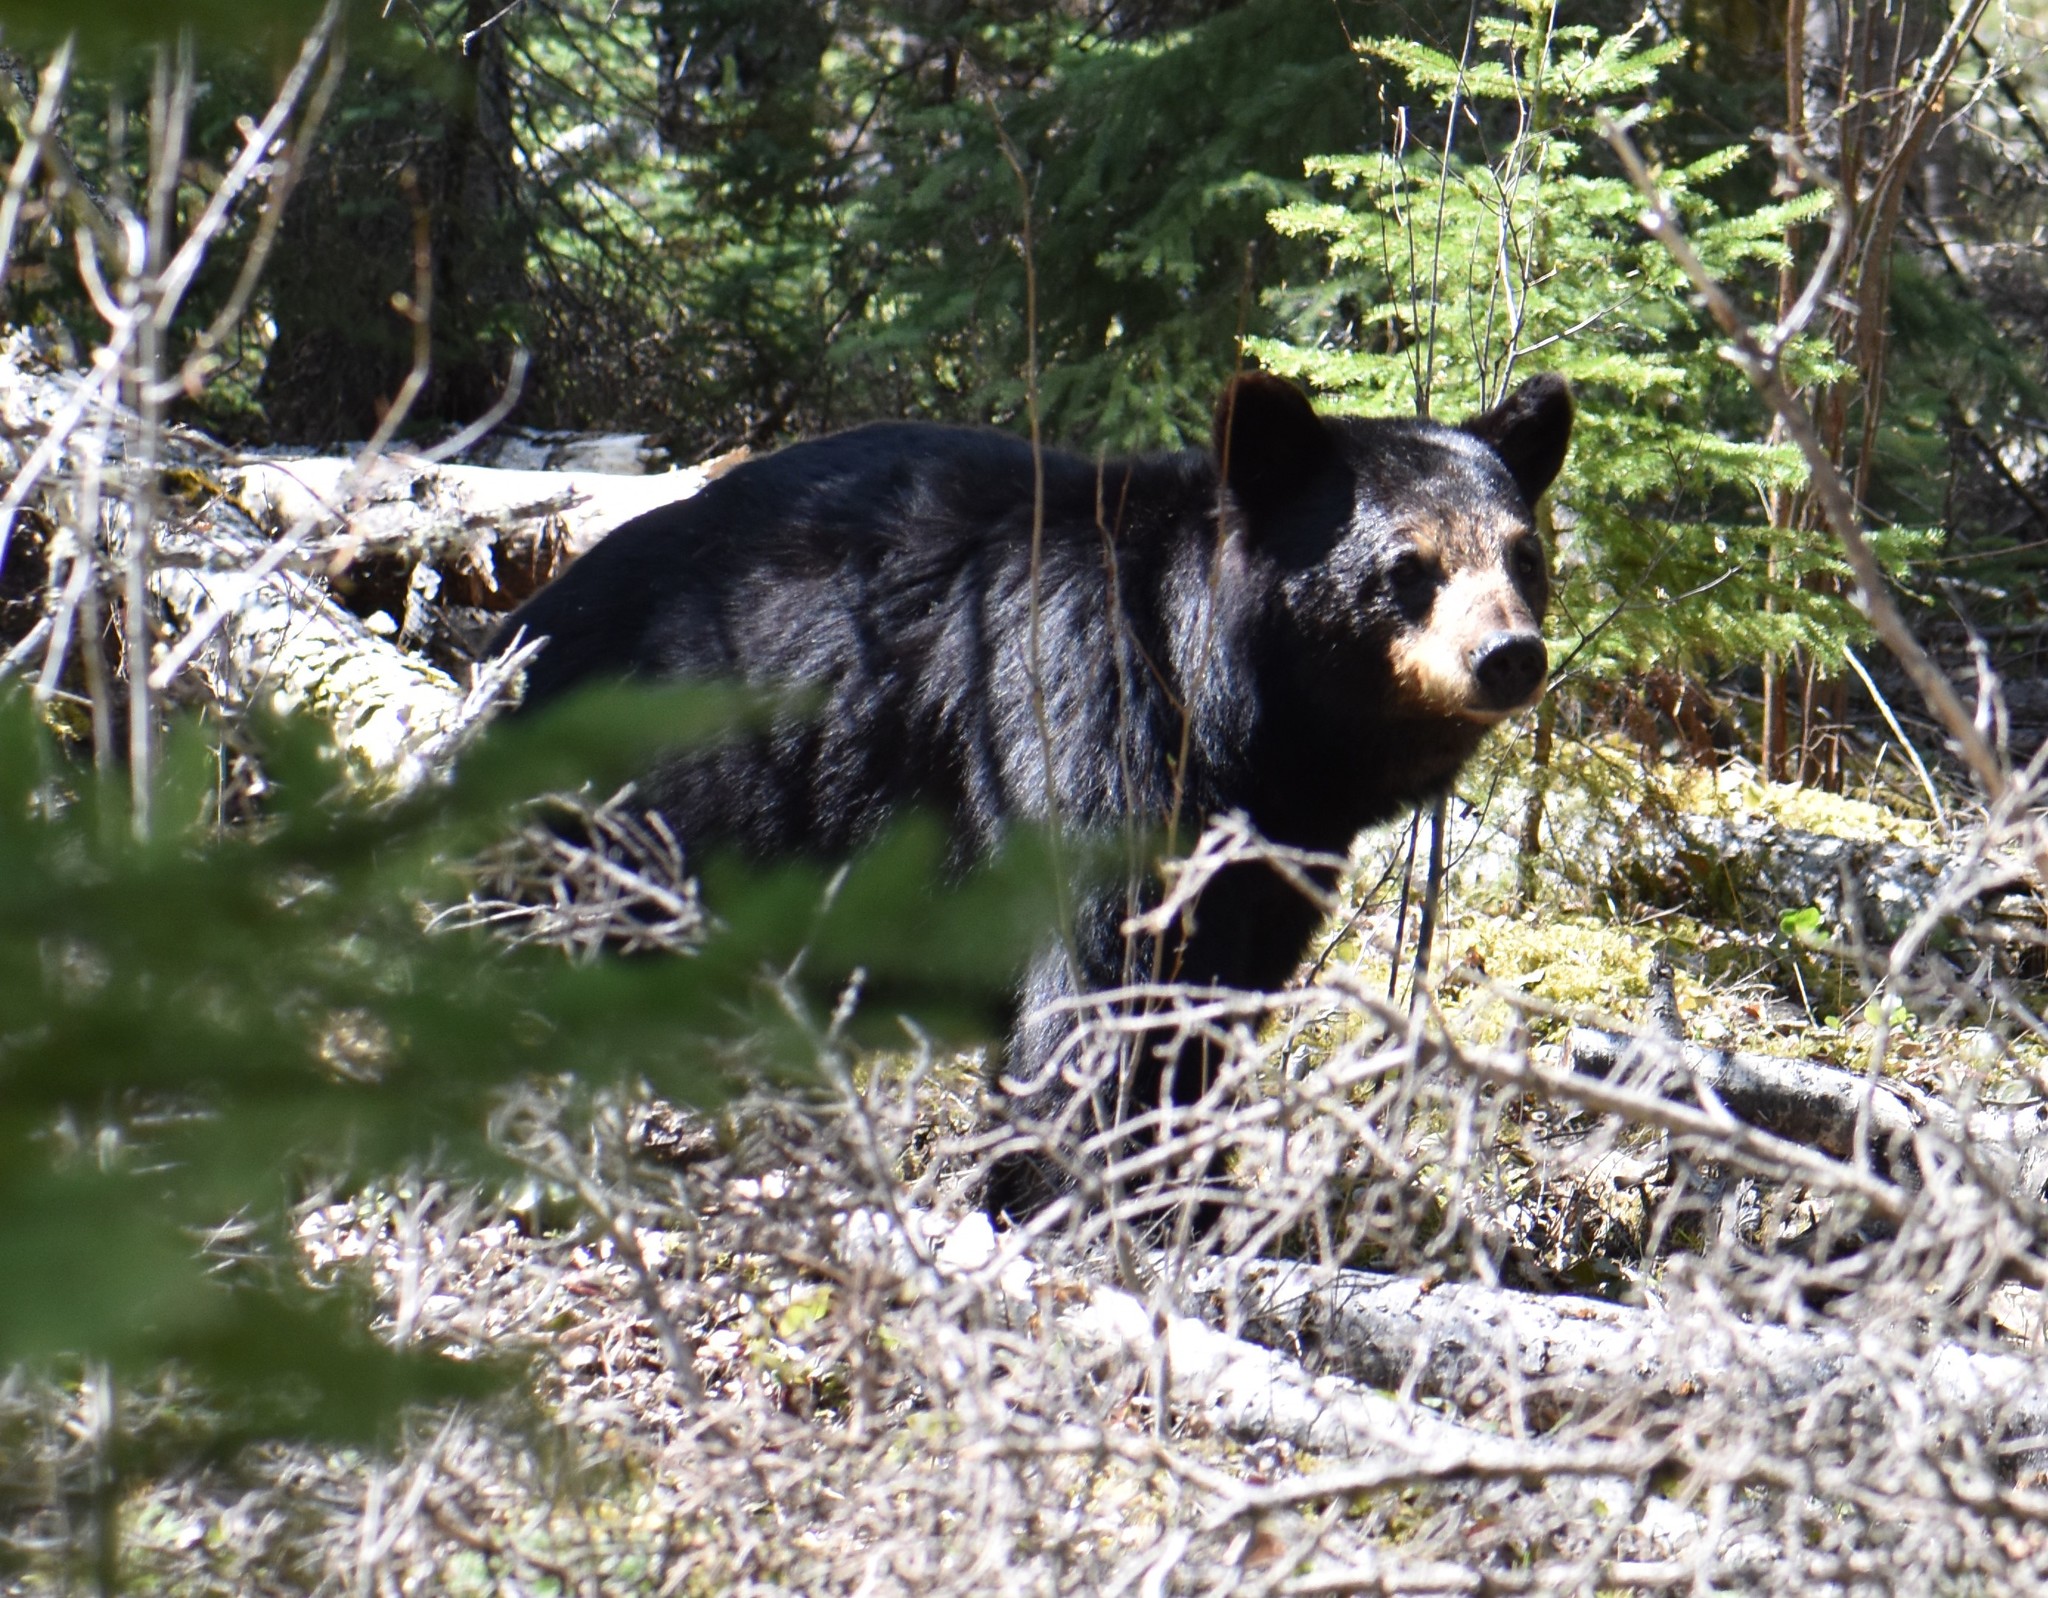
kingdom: Animalia
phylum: Chordata
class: Mammalia
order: Carnivora
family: Ursidae
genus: Ursus
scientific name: Ursus americanus
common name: American black bear
